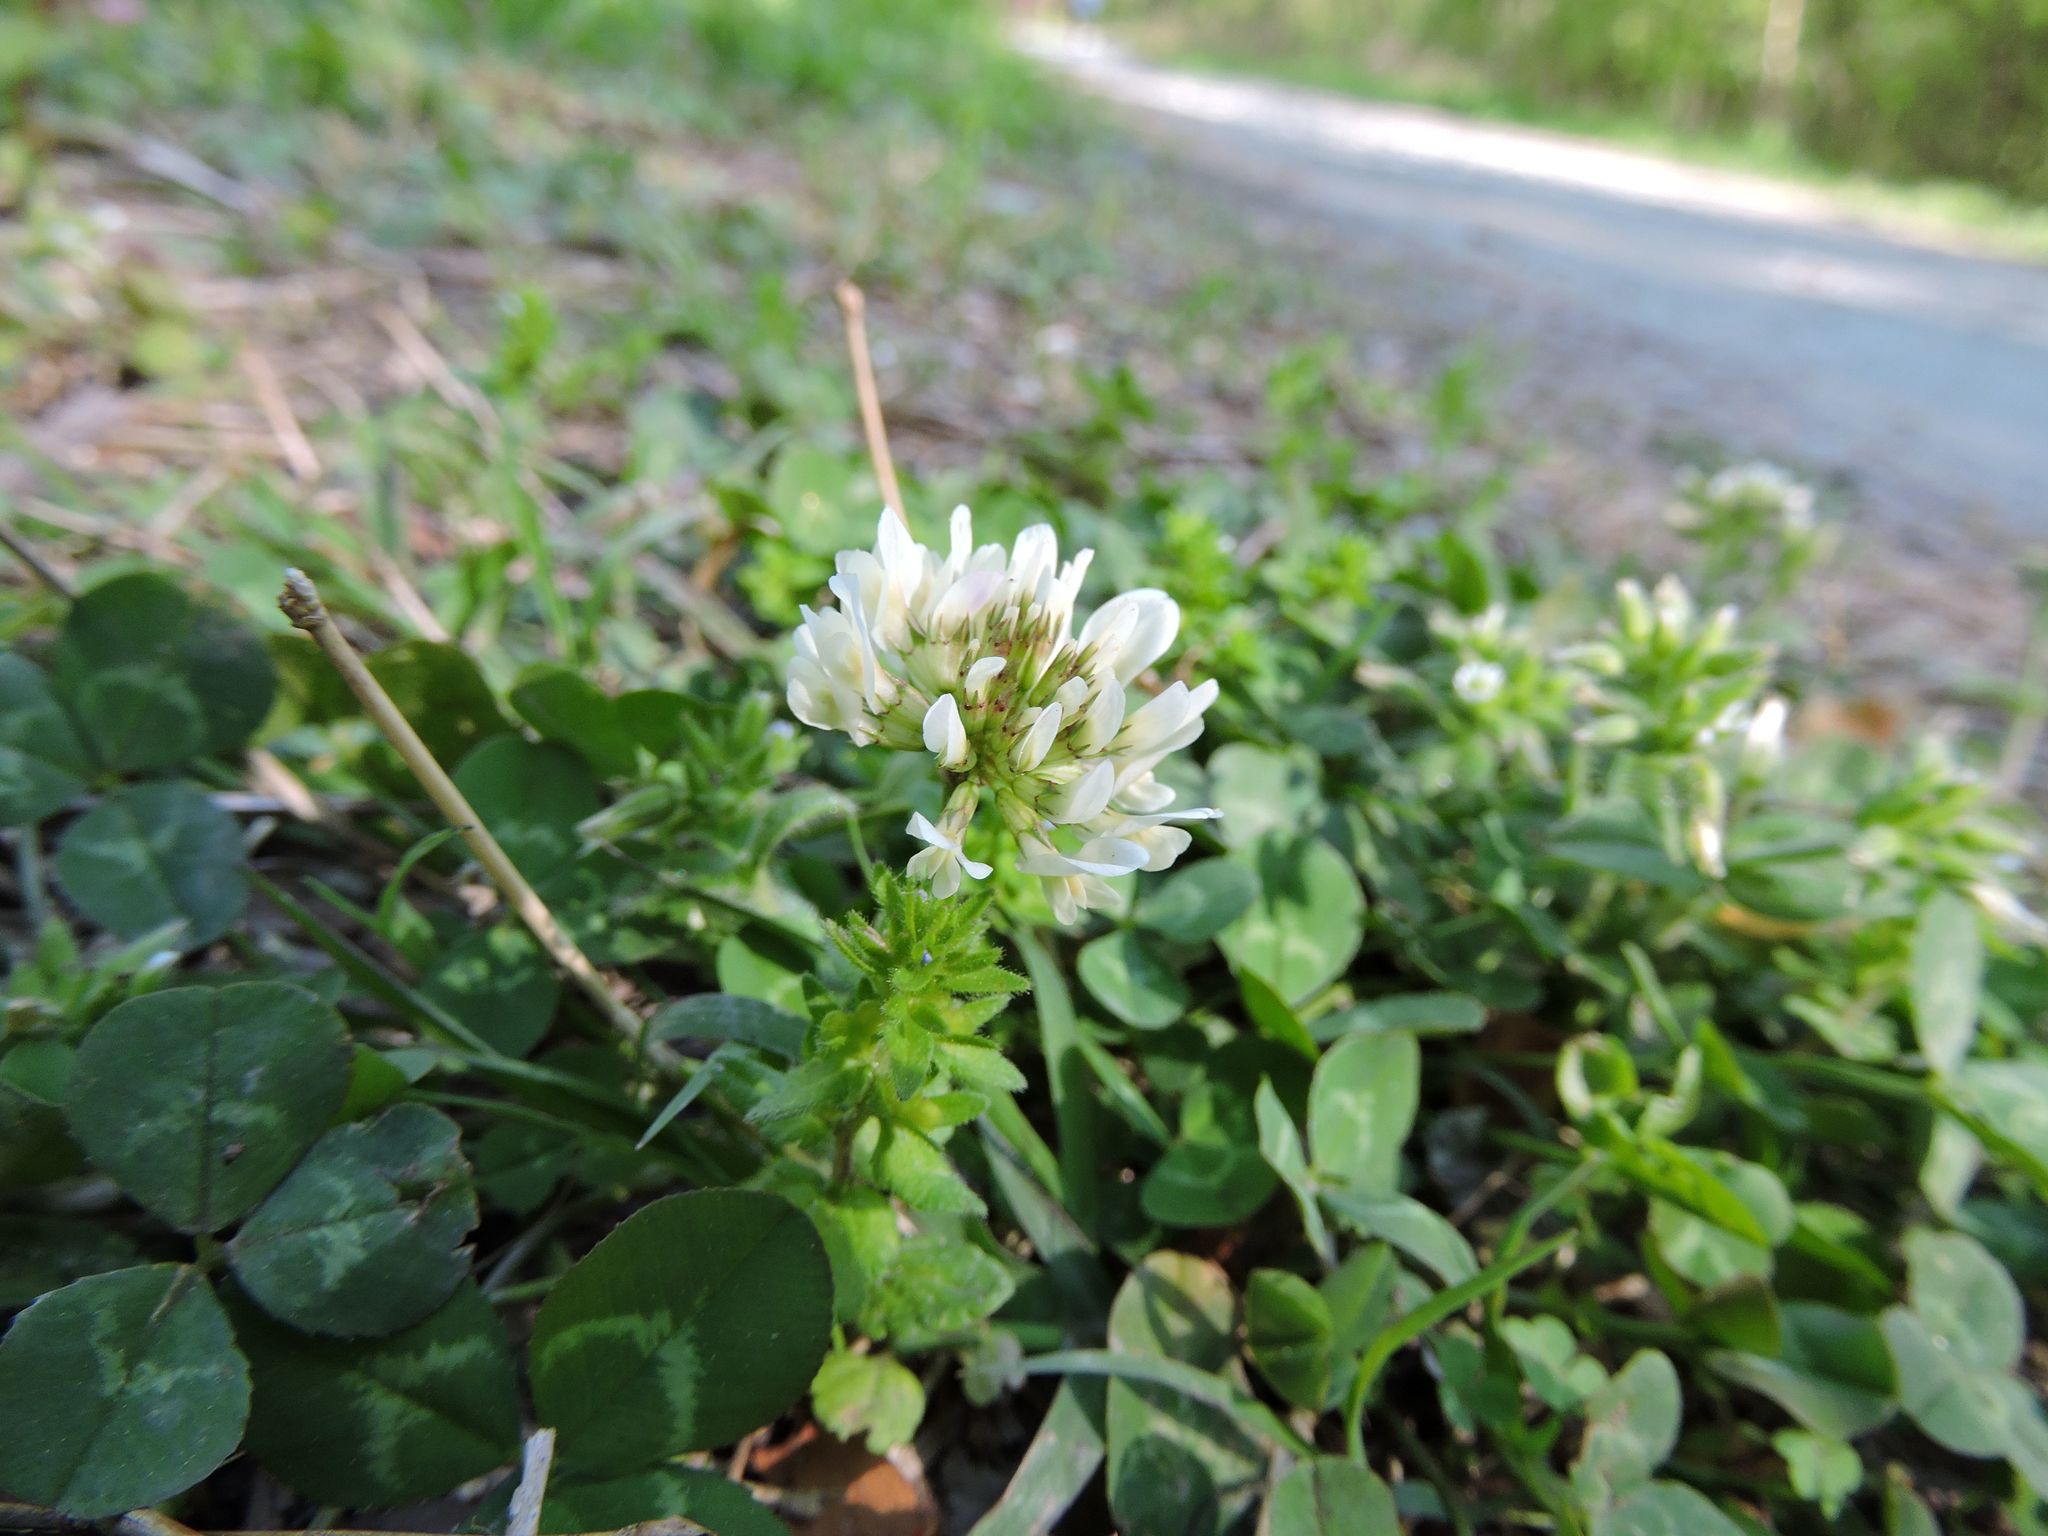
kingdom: Plantae
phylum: Tracheophyta
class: Magnoliopsida
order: Fabales
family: Fabaceae
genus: Trifolium
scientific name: Trifolium repens
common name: White clover
